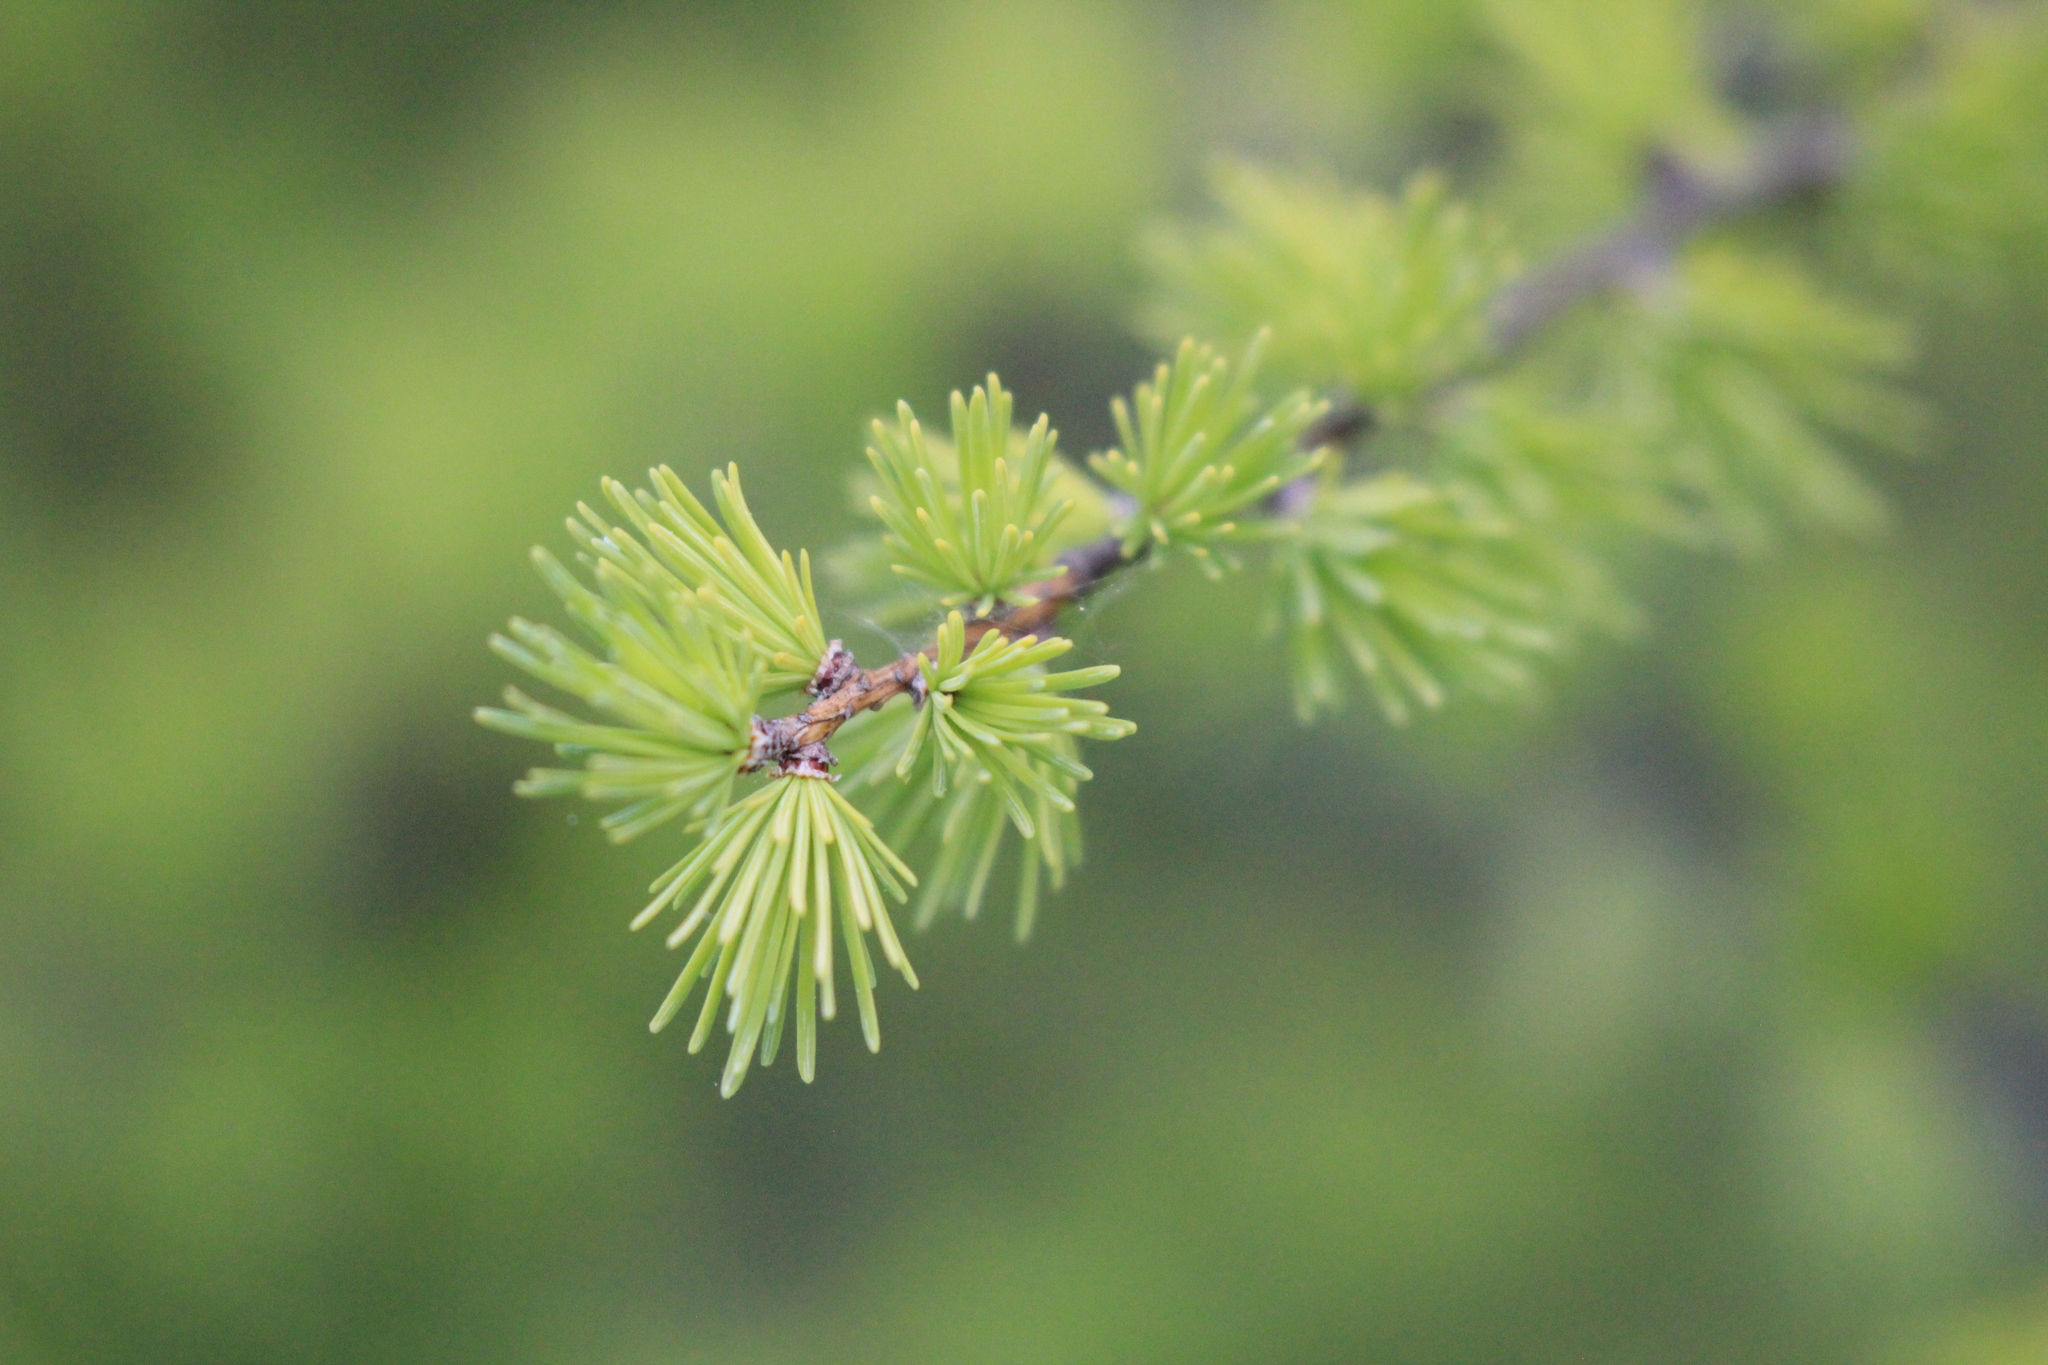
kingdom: Plantae
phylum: Tracheophyta
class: Pinopsida
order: Pinales
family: Pinaceae
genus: Larix
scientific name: Larix laricina
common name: American larch
